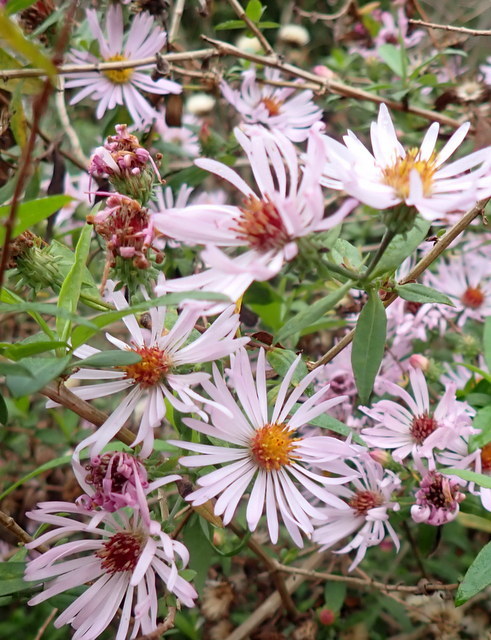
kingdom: Plantae
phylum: Tracheophyta
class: Magnoliopsida
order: Asterales
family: Asteraceae
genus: Ampelaster
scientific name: Ampelaster carolinianus
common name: Climbing aster
